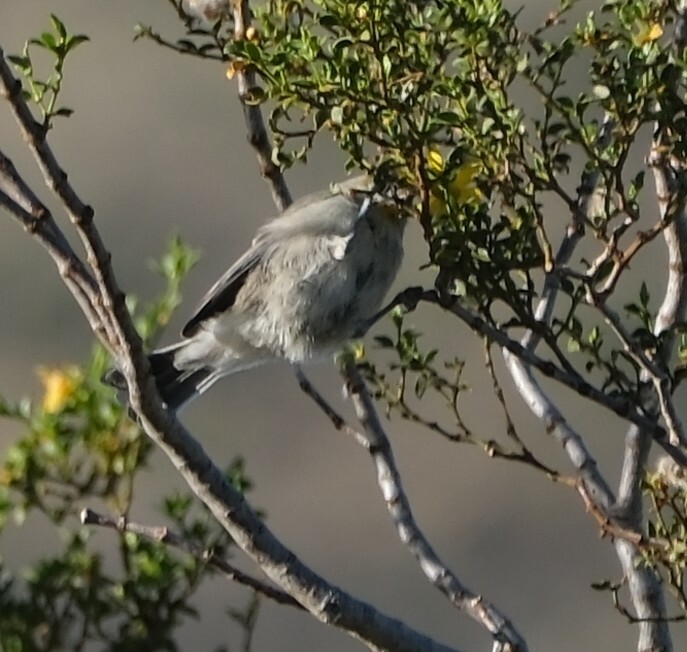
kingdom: Animalia
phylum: Chordata
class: Aves
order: Passeriformes
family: Remizidae
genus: Auriparus
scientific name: Auriparus flaviceps
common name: Verdin
